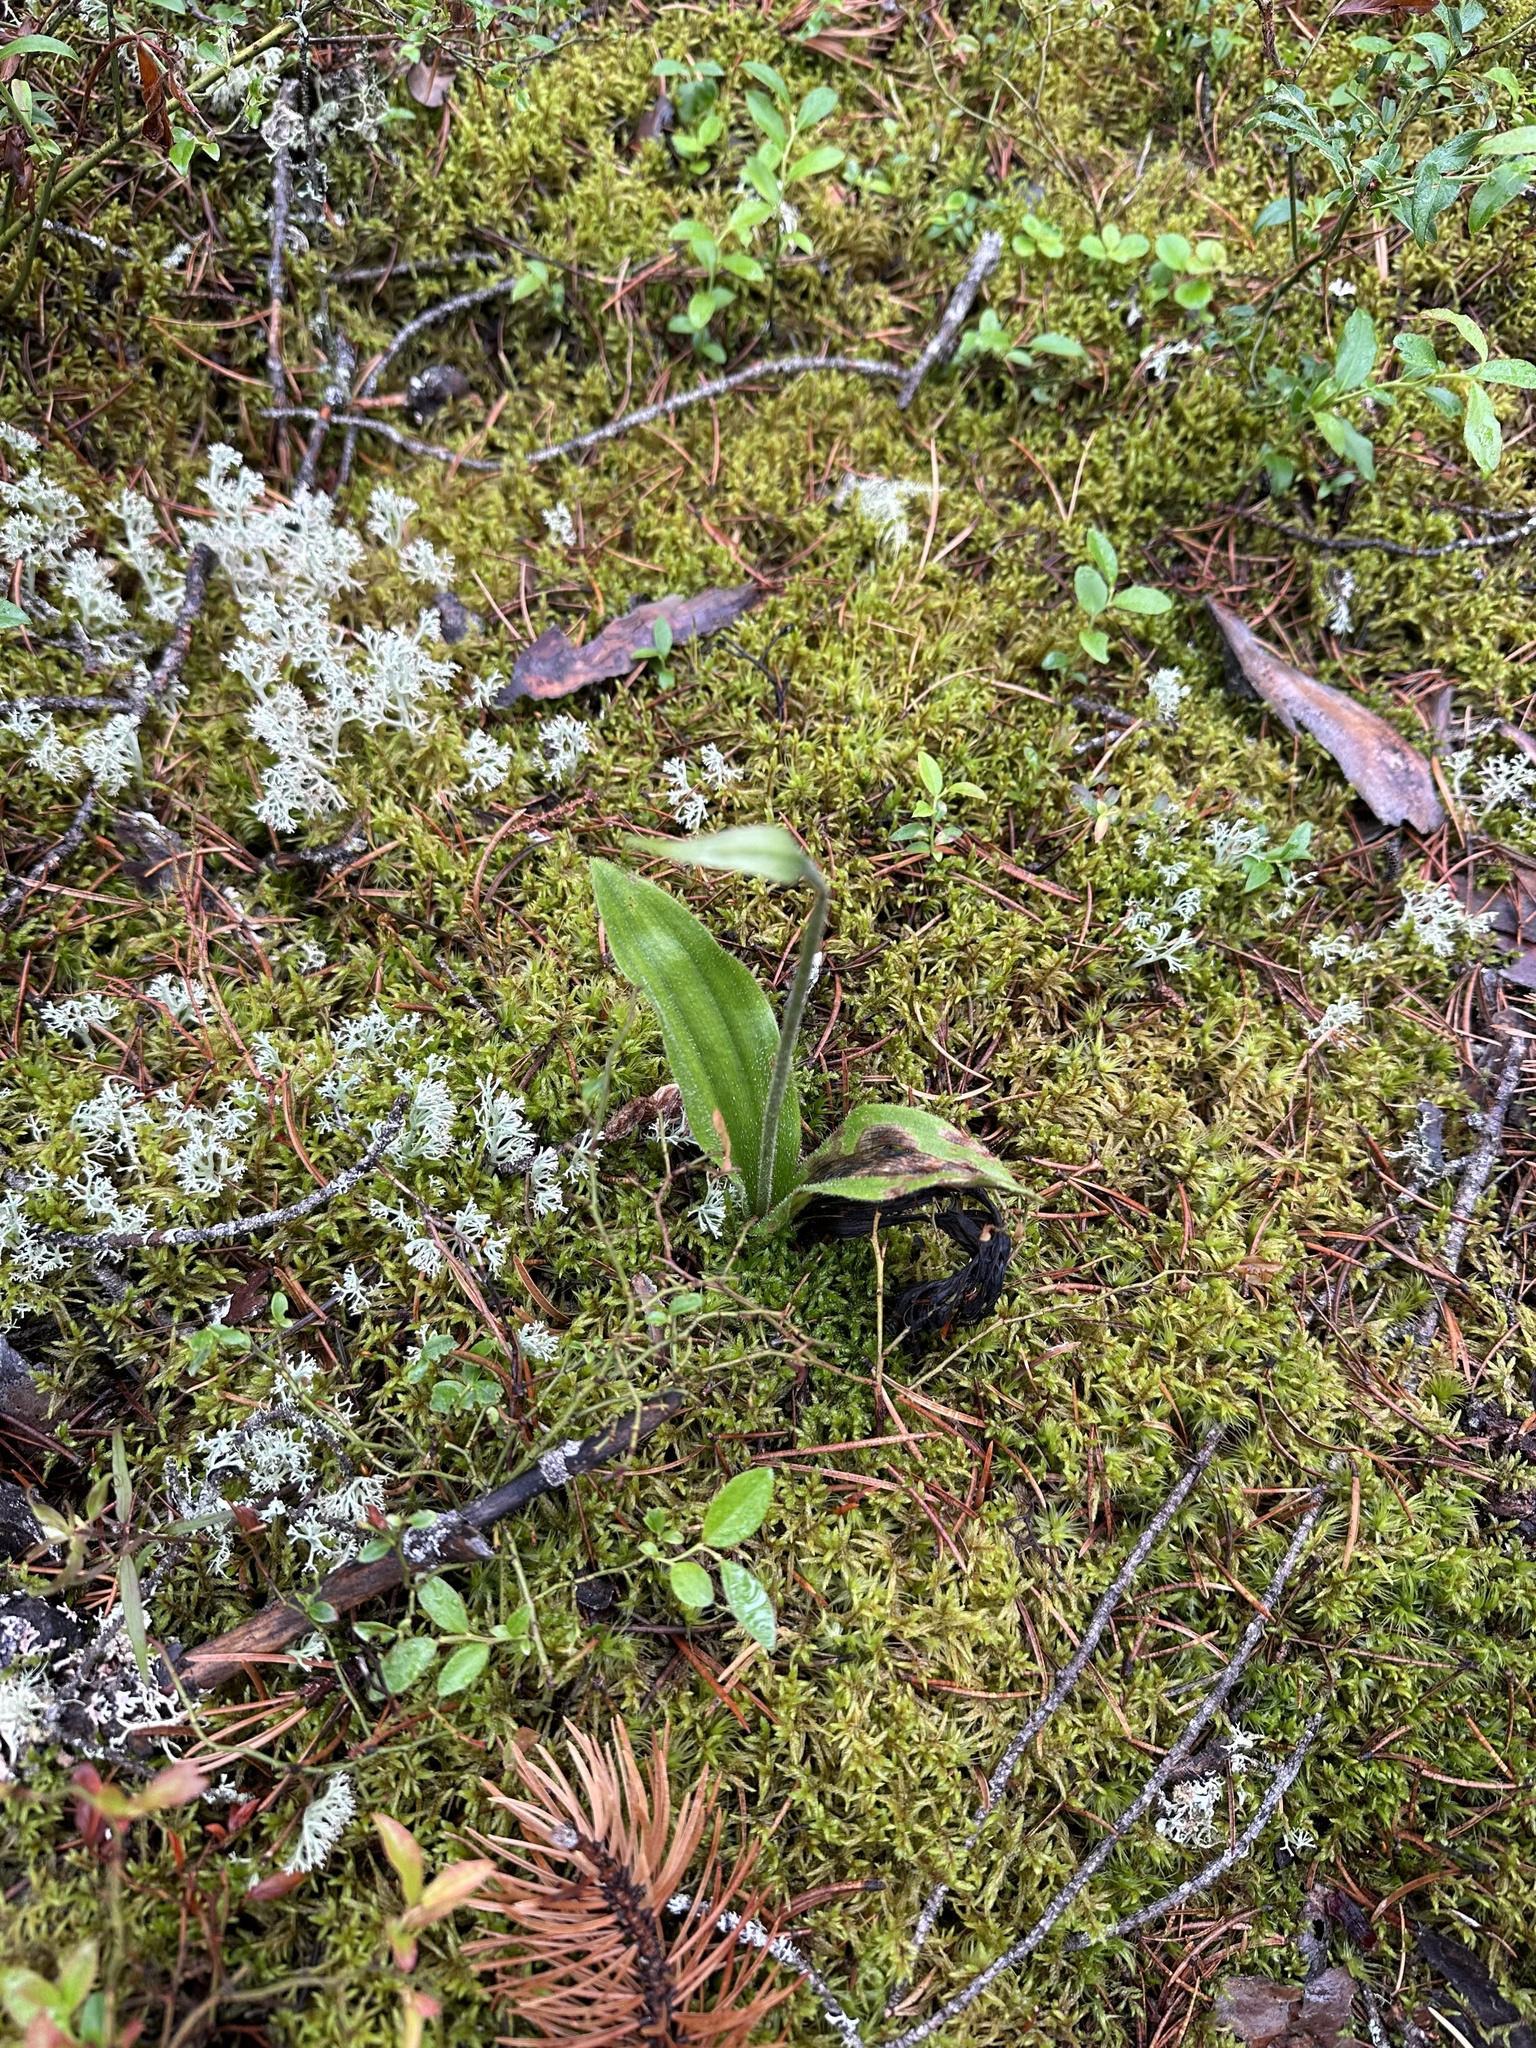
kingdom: Plantae
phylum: Tracheophyta
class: Liliopsida
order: Asparagales
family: Orchidaceae
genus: Cypripedium
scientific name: Cypripedium acaule
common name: Pink lady's-slipper
